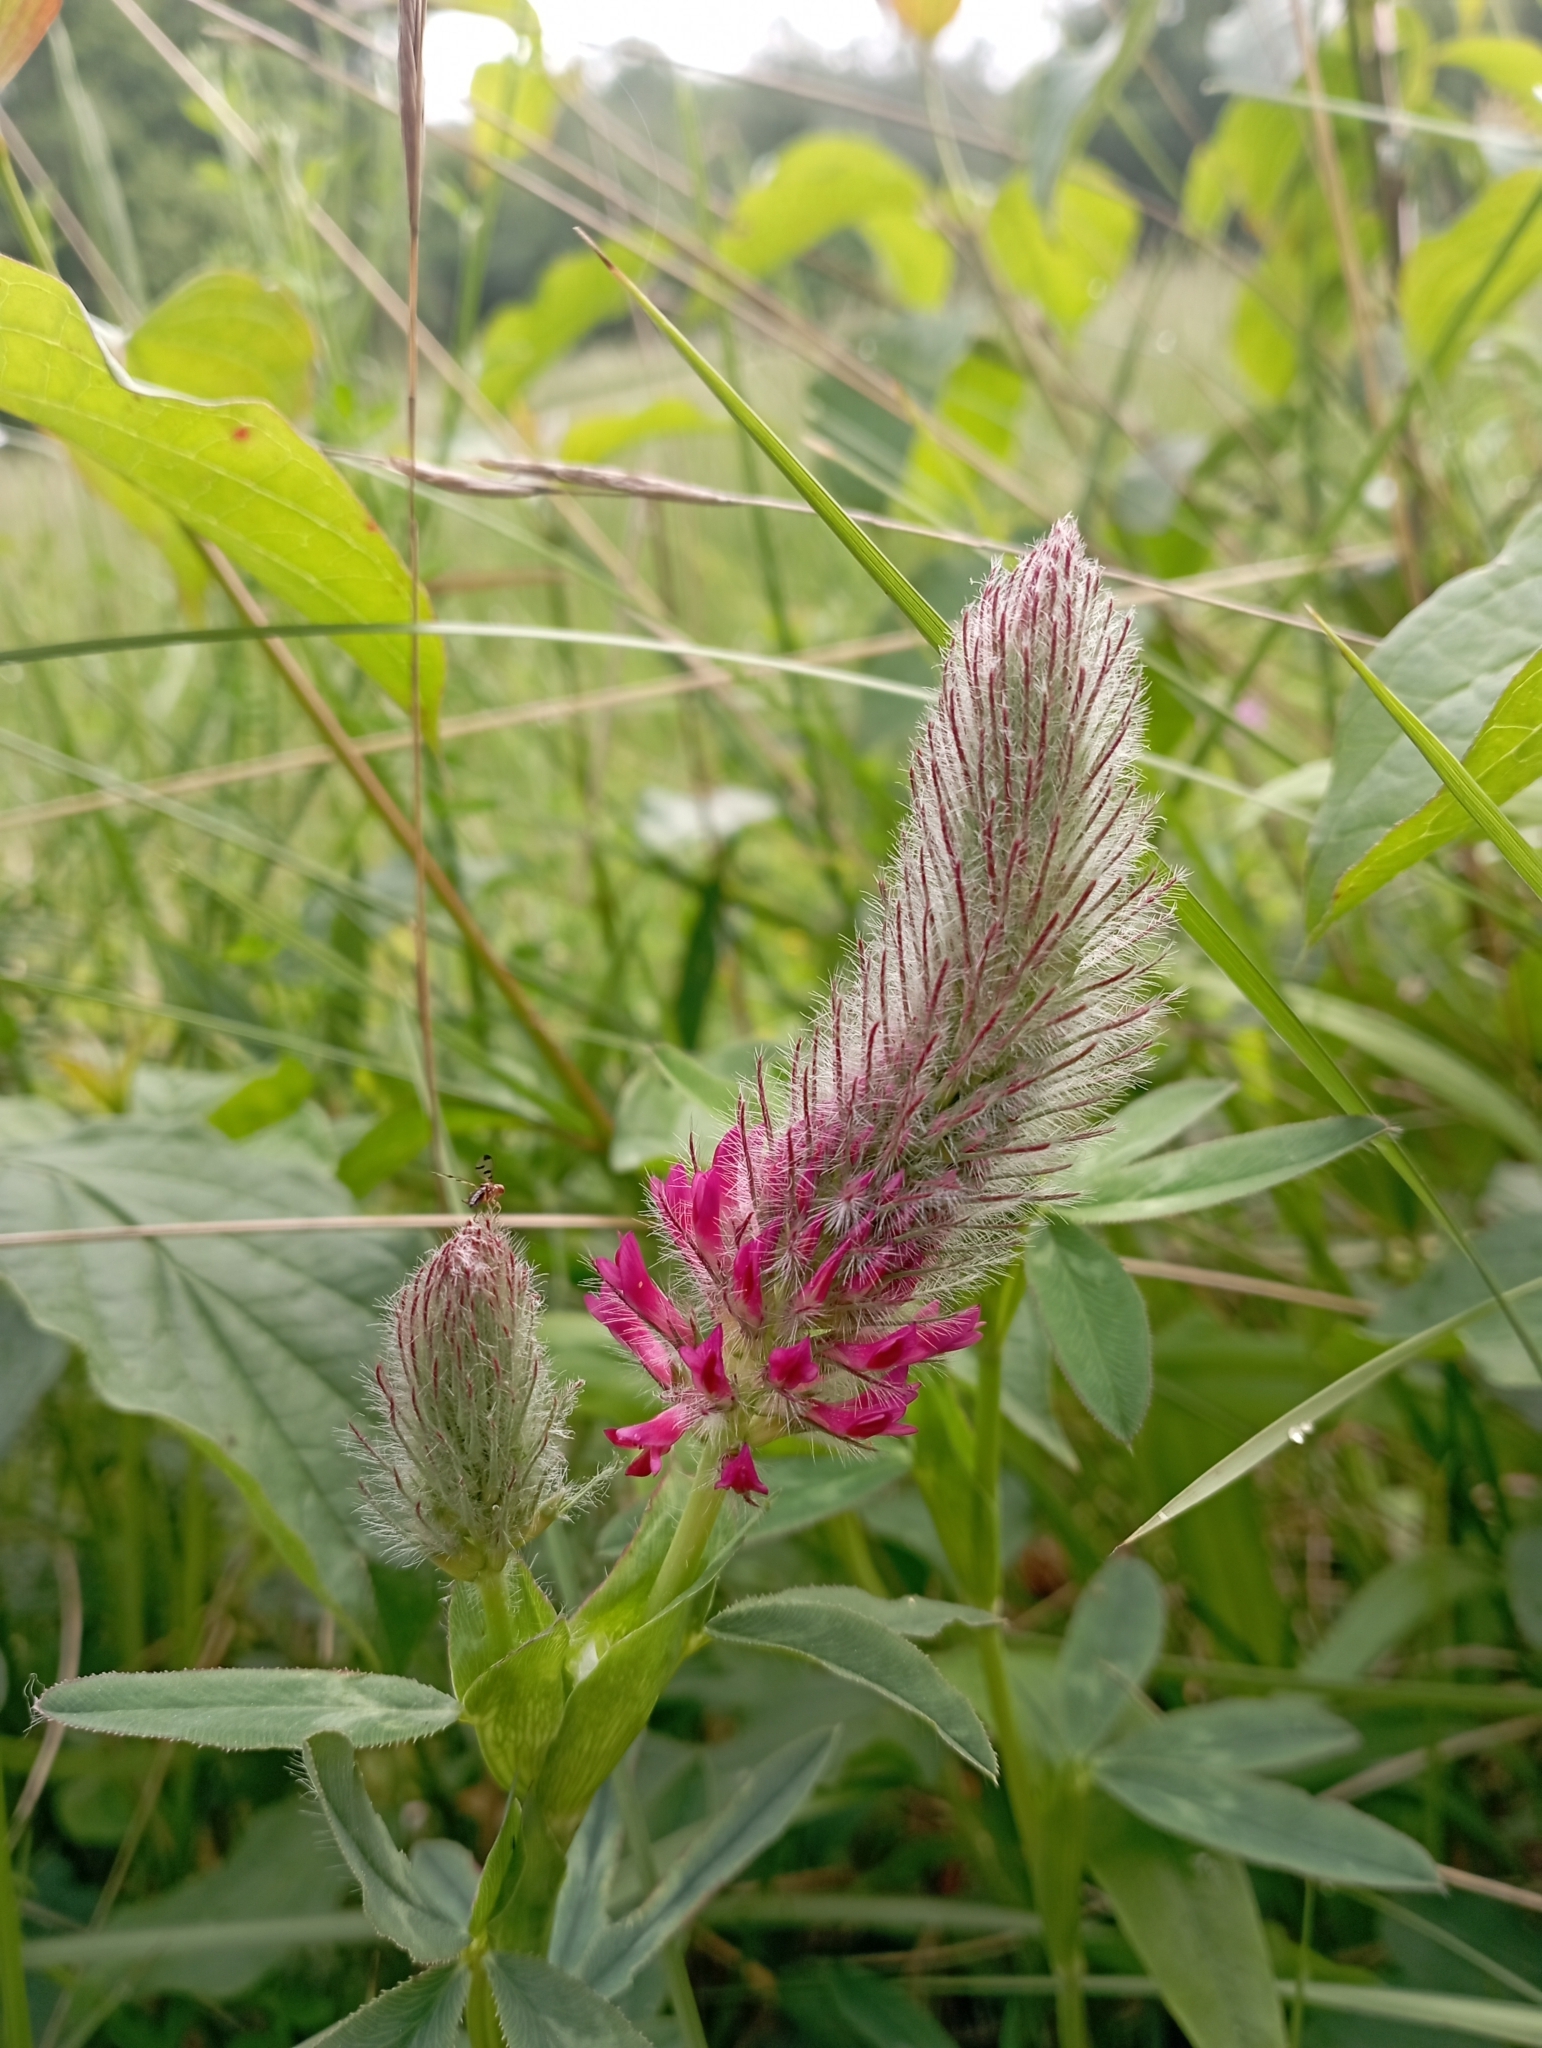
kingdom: Plantae
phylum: Tracheophyta
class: Magnoliopsida
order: Fabales
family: Fabaceae
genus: Trifolium
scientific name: Trifolium rubens
